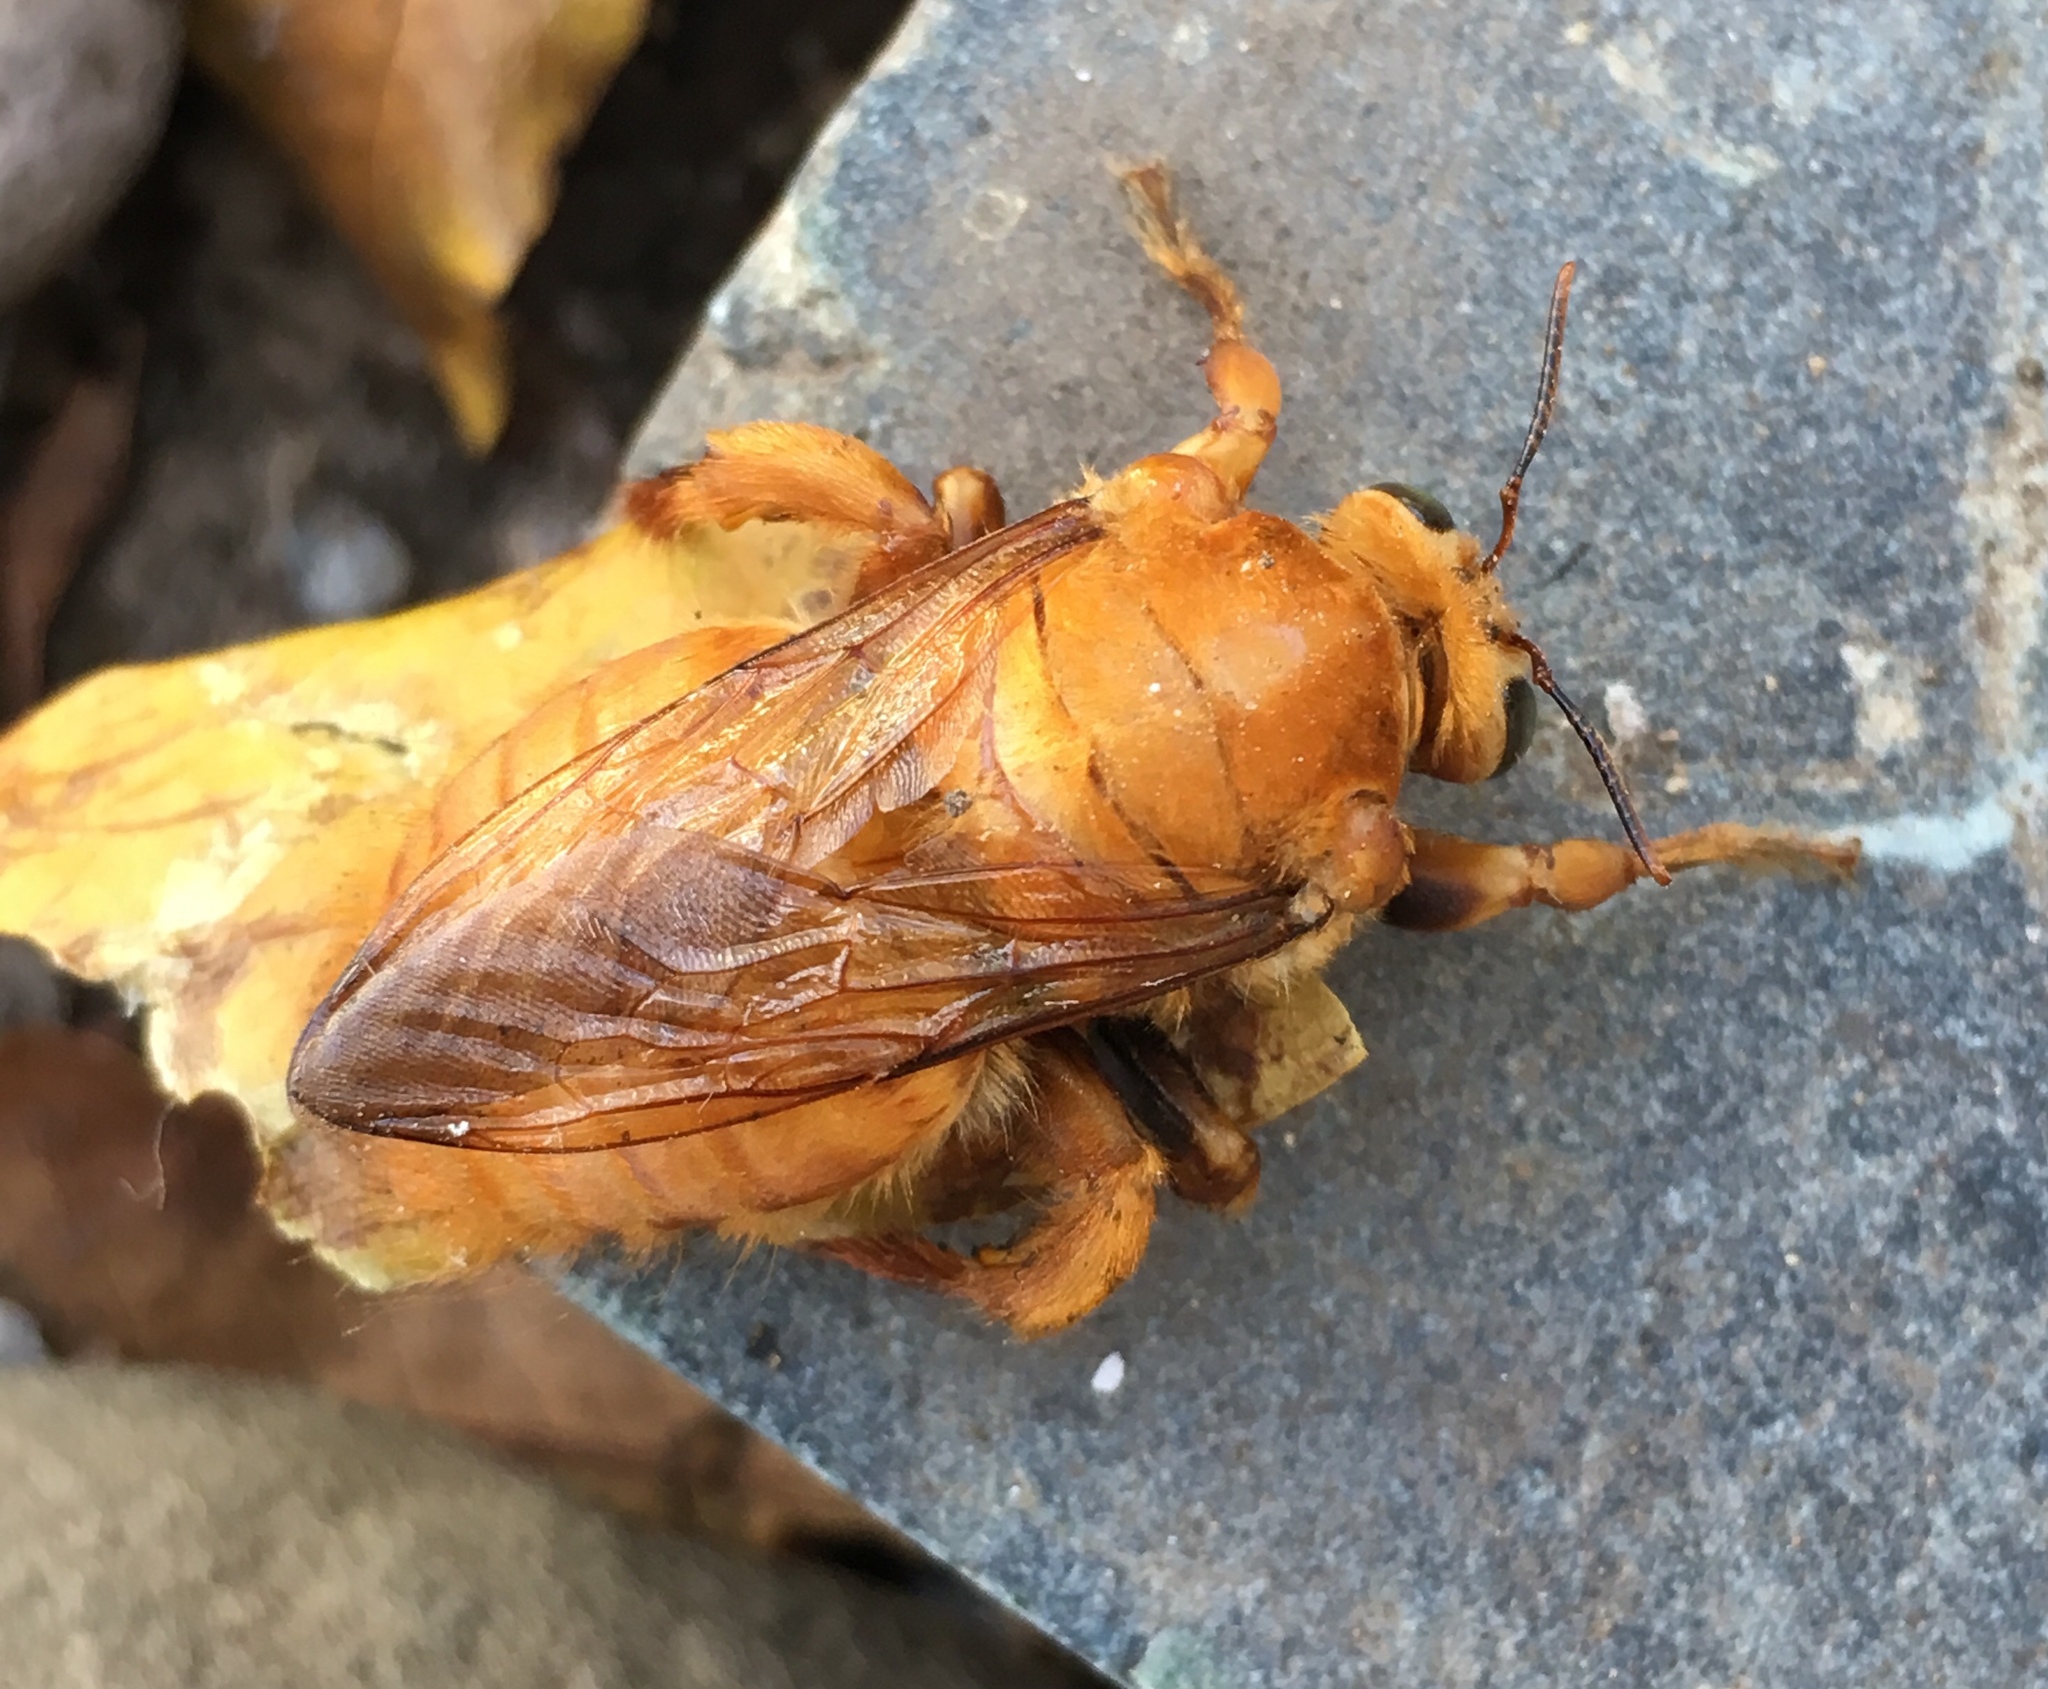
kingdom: Animalia
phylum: Arthropoda
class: Insecta
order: Hymenoptera
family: Apidae
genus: Xylocopa
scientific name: Xylocopa sonorina
